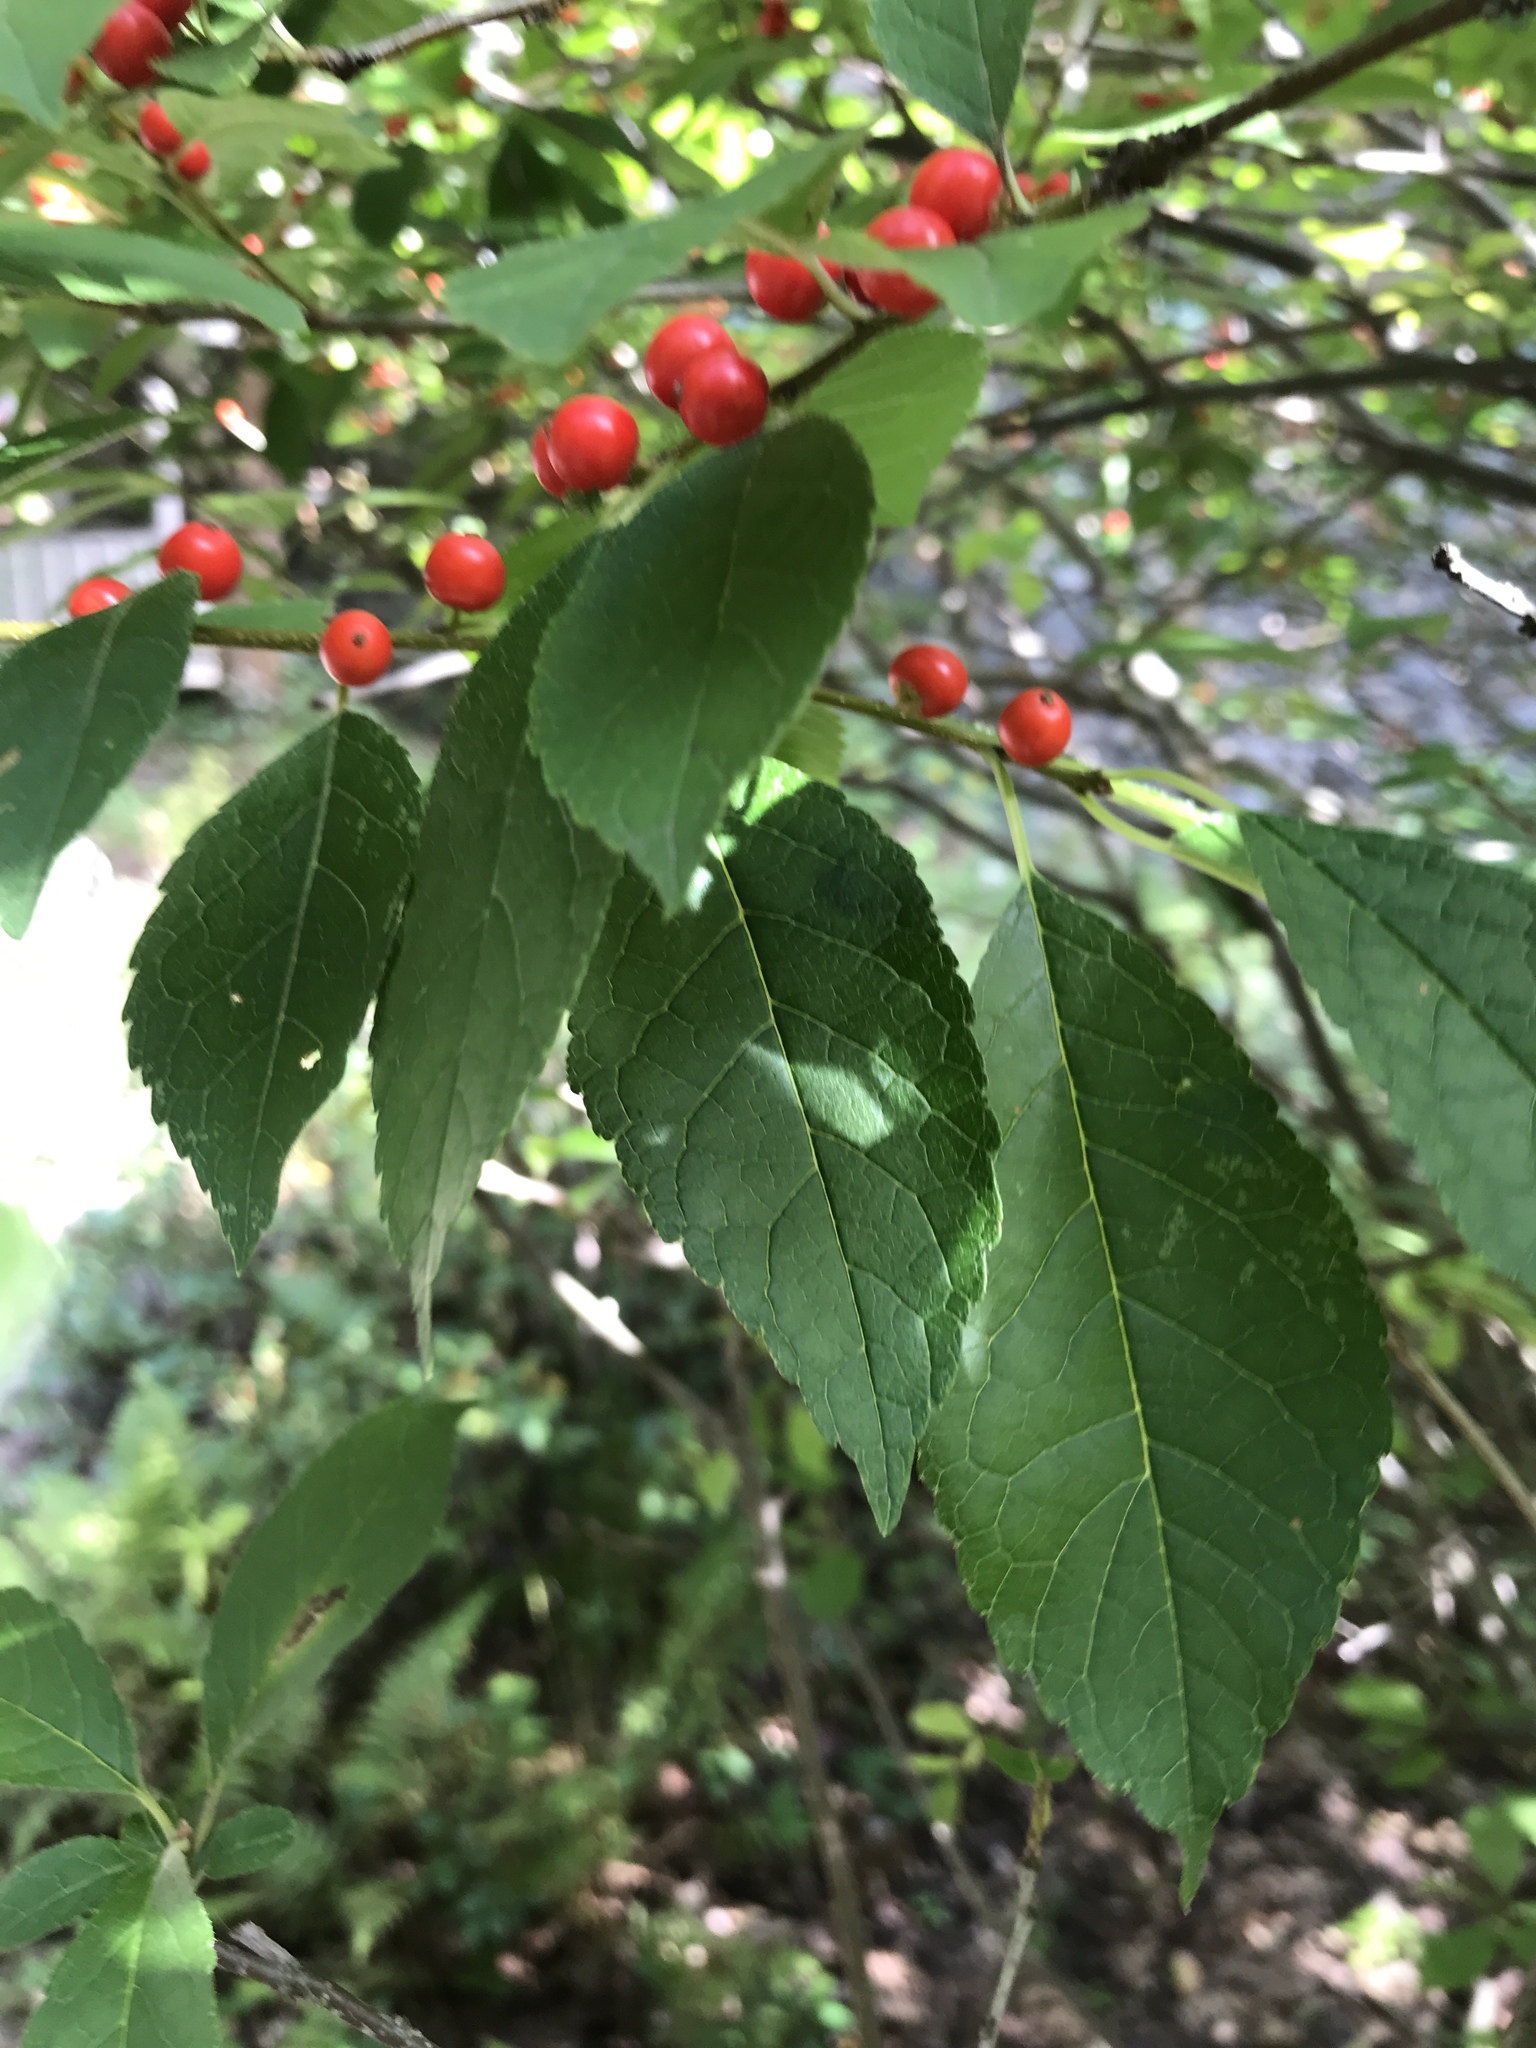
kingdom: Plantae
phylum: Tracheophyta
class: Magnoliopsida
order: Aquifoliales
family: Aquifoliaceae
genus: Ilex
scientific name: Ilex verticillata
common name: Virginia winterberry
